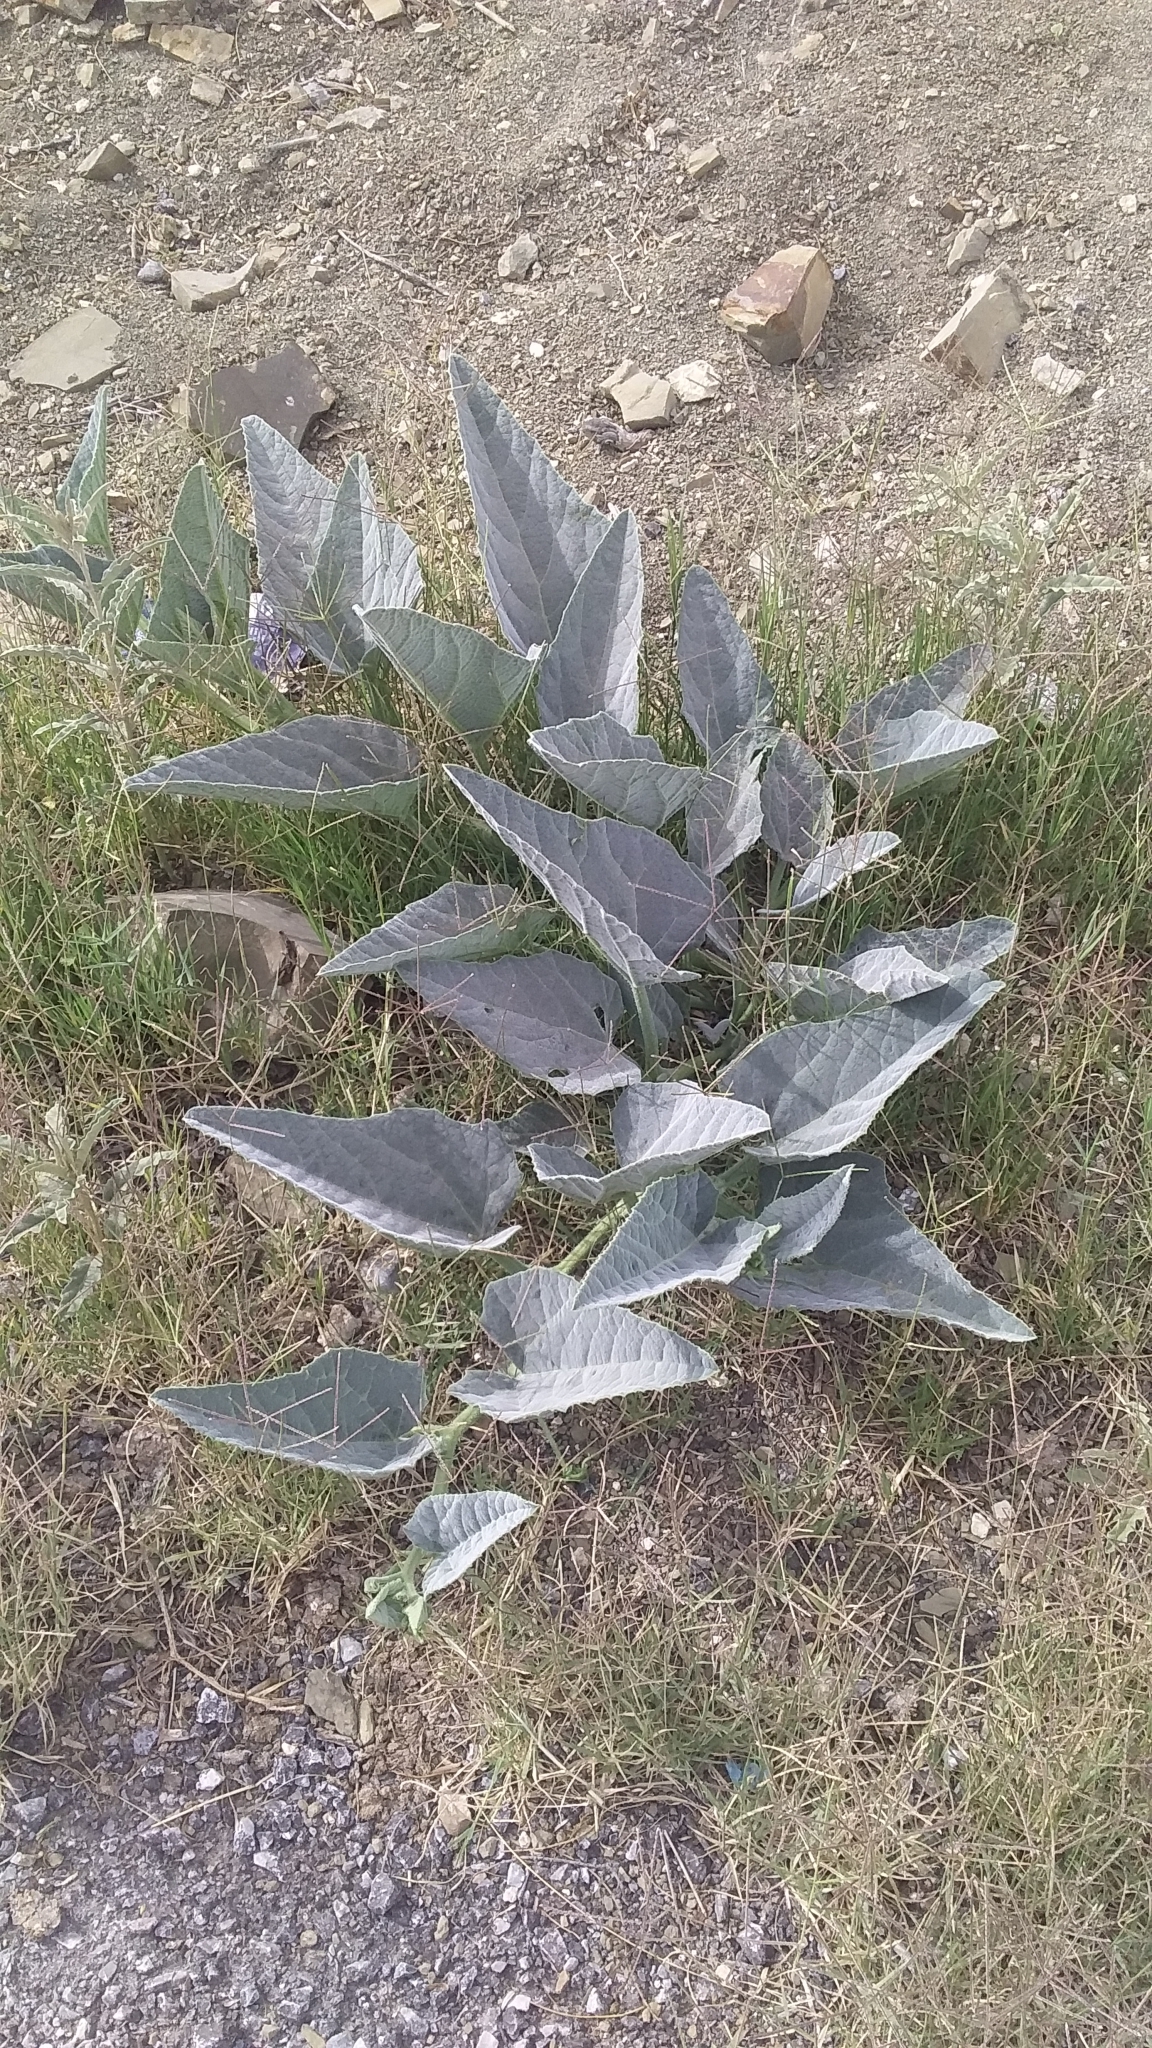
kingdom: Plantae
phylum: Tracheophyta
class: Magnoliopsida
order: Cucurbitales
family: Cucurbitaceae
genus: Cucurbita
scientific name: Cucurbita foetidissima
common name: Buffalo gourd
